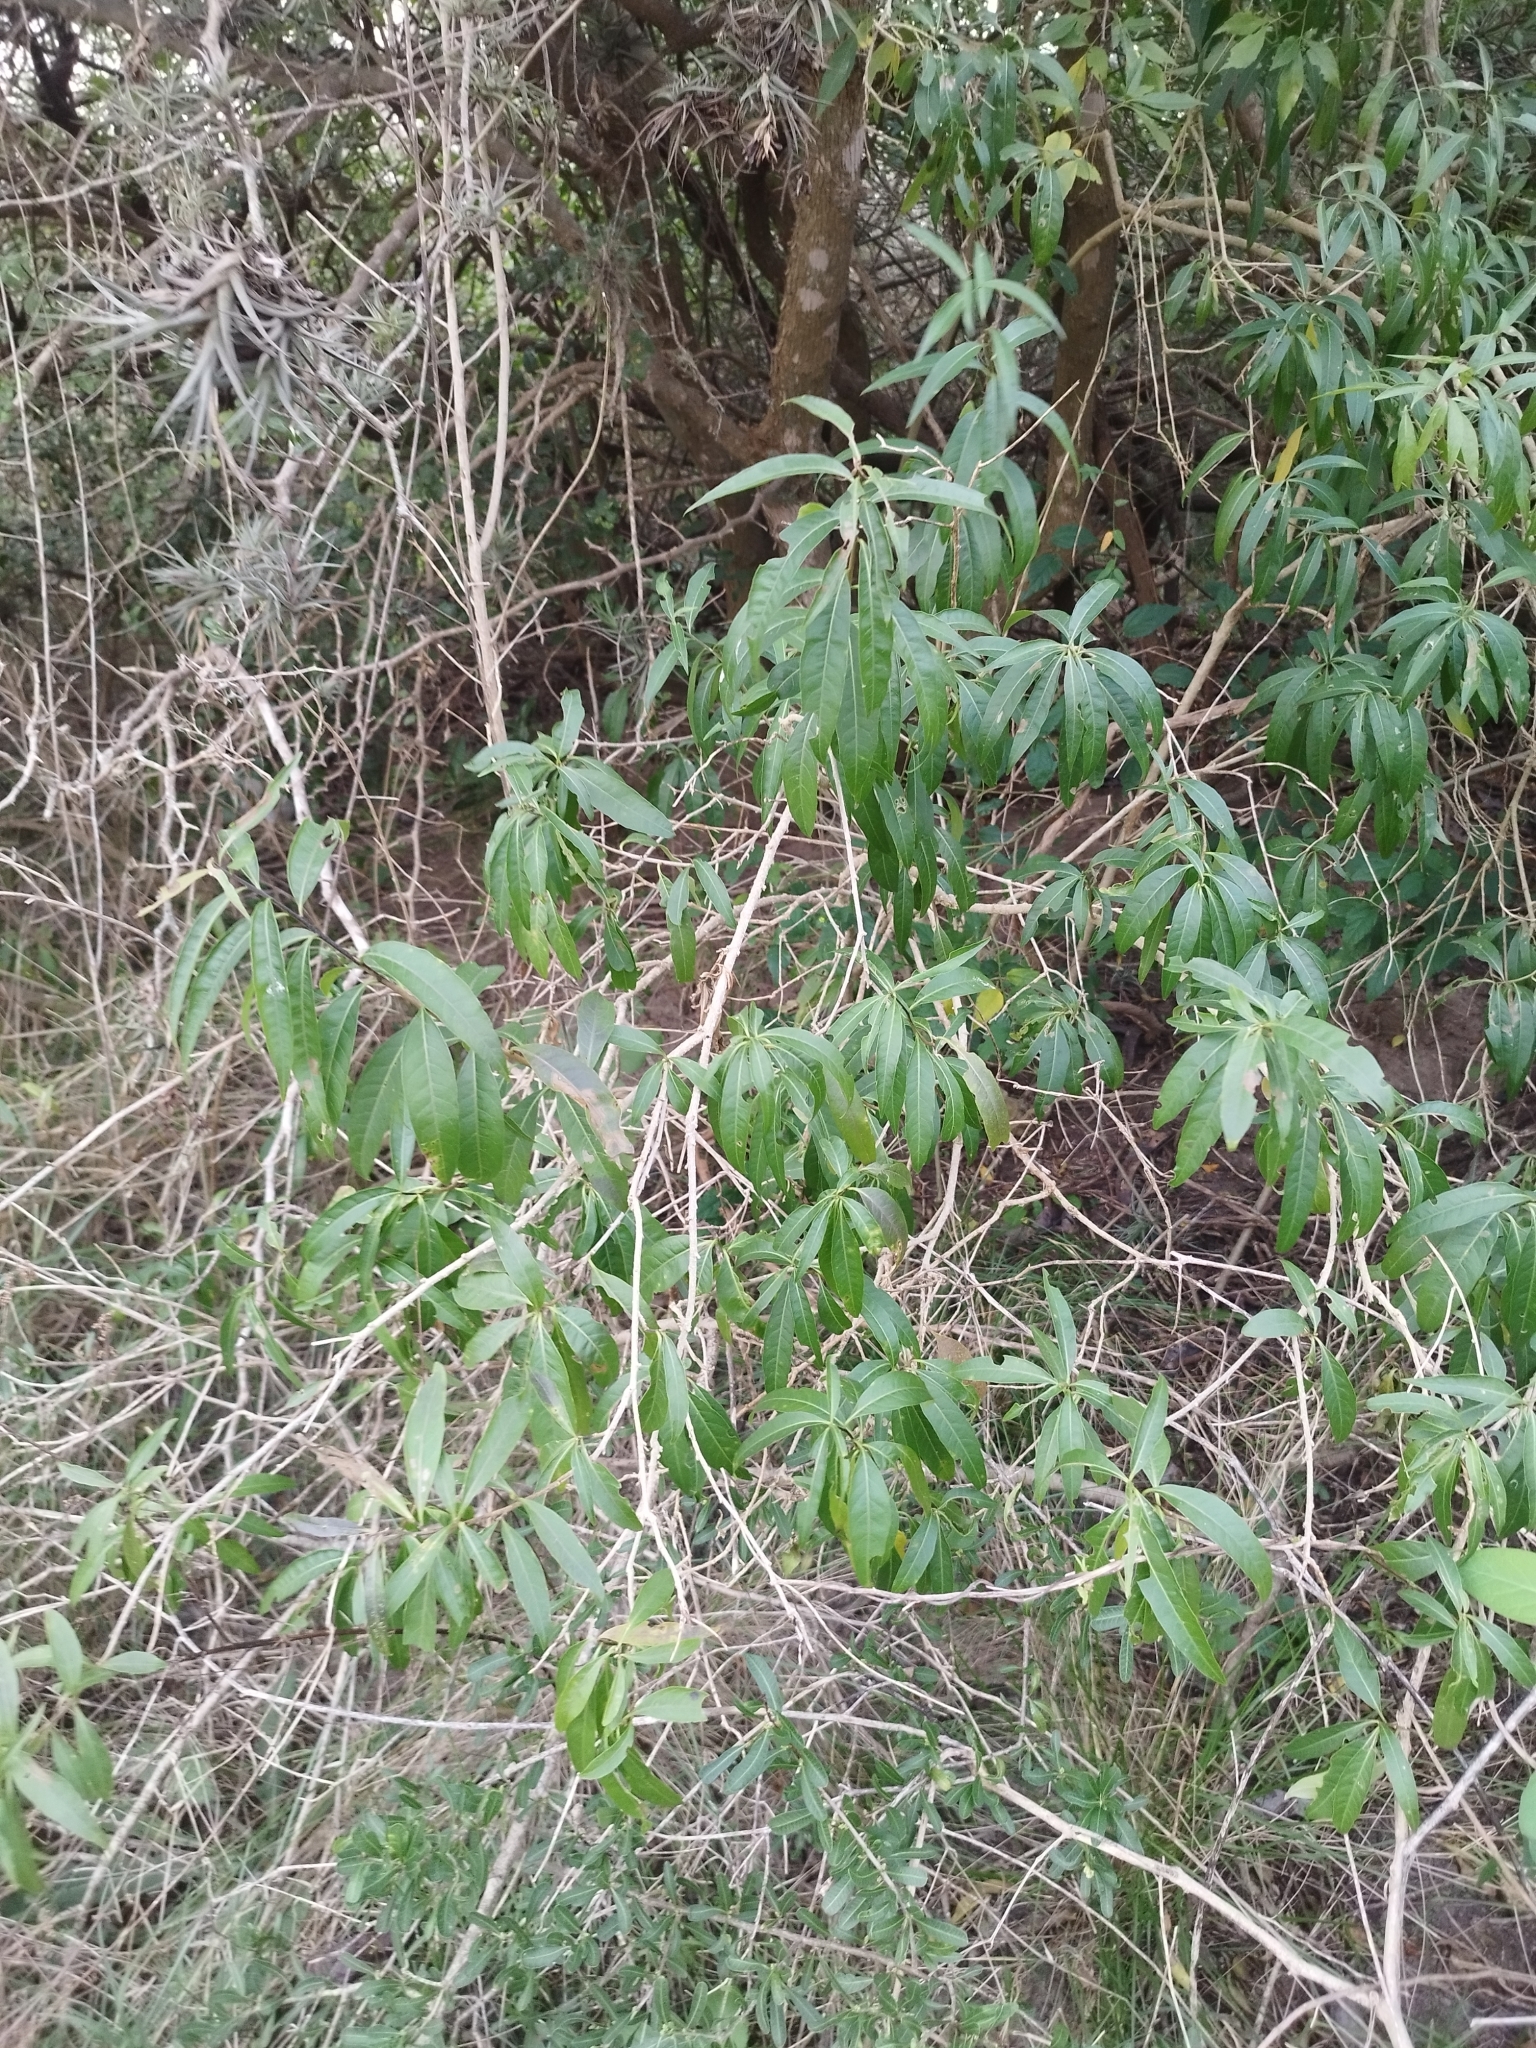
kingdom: Plantae
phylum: Tracheophyta
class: Magnoliopsida
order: Solanales
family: Solanaceae
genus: Cestrum
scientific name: Cestrum parqui
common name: Chilean cestrum
